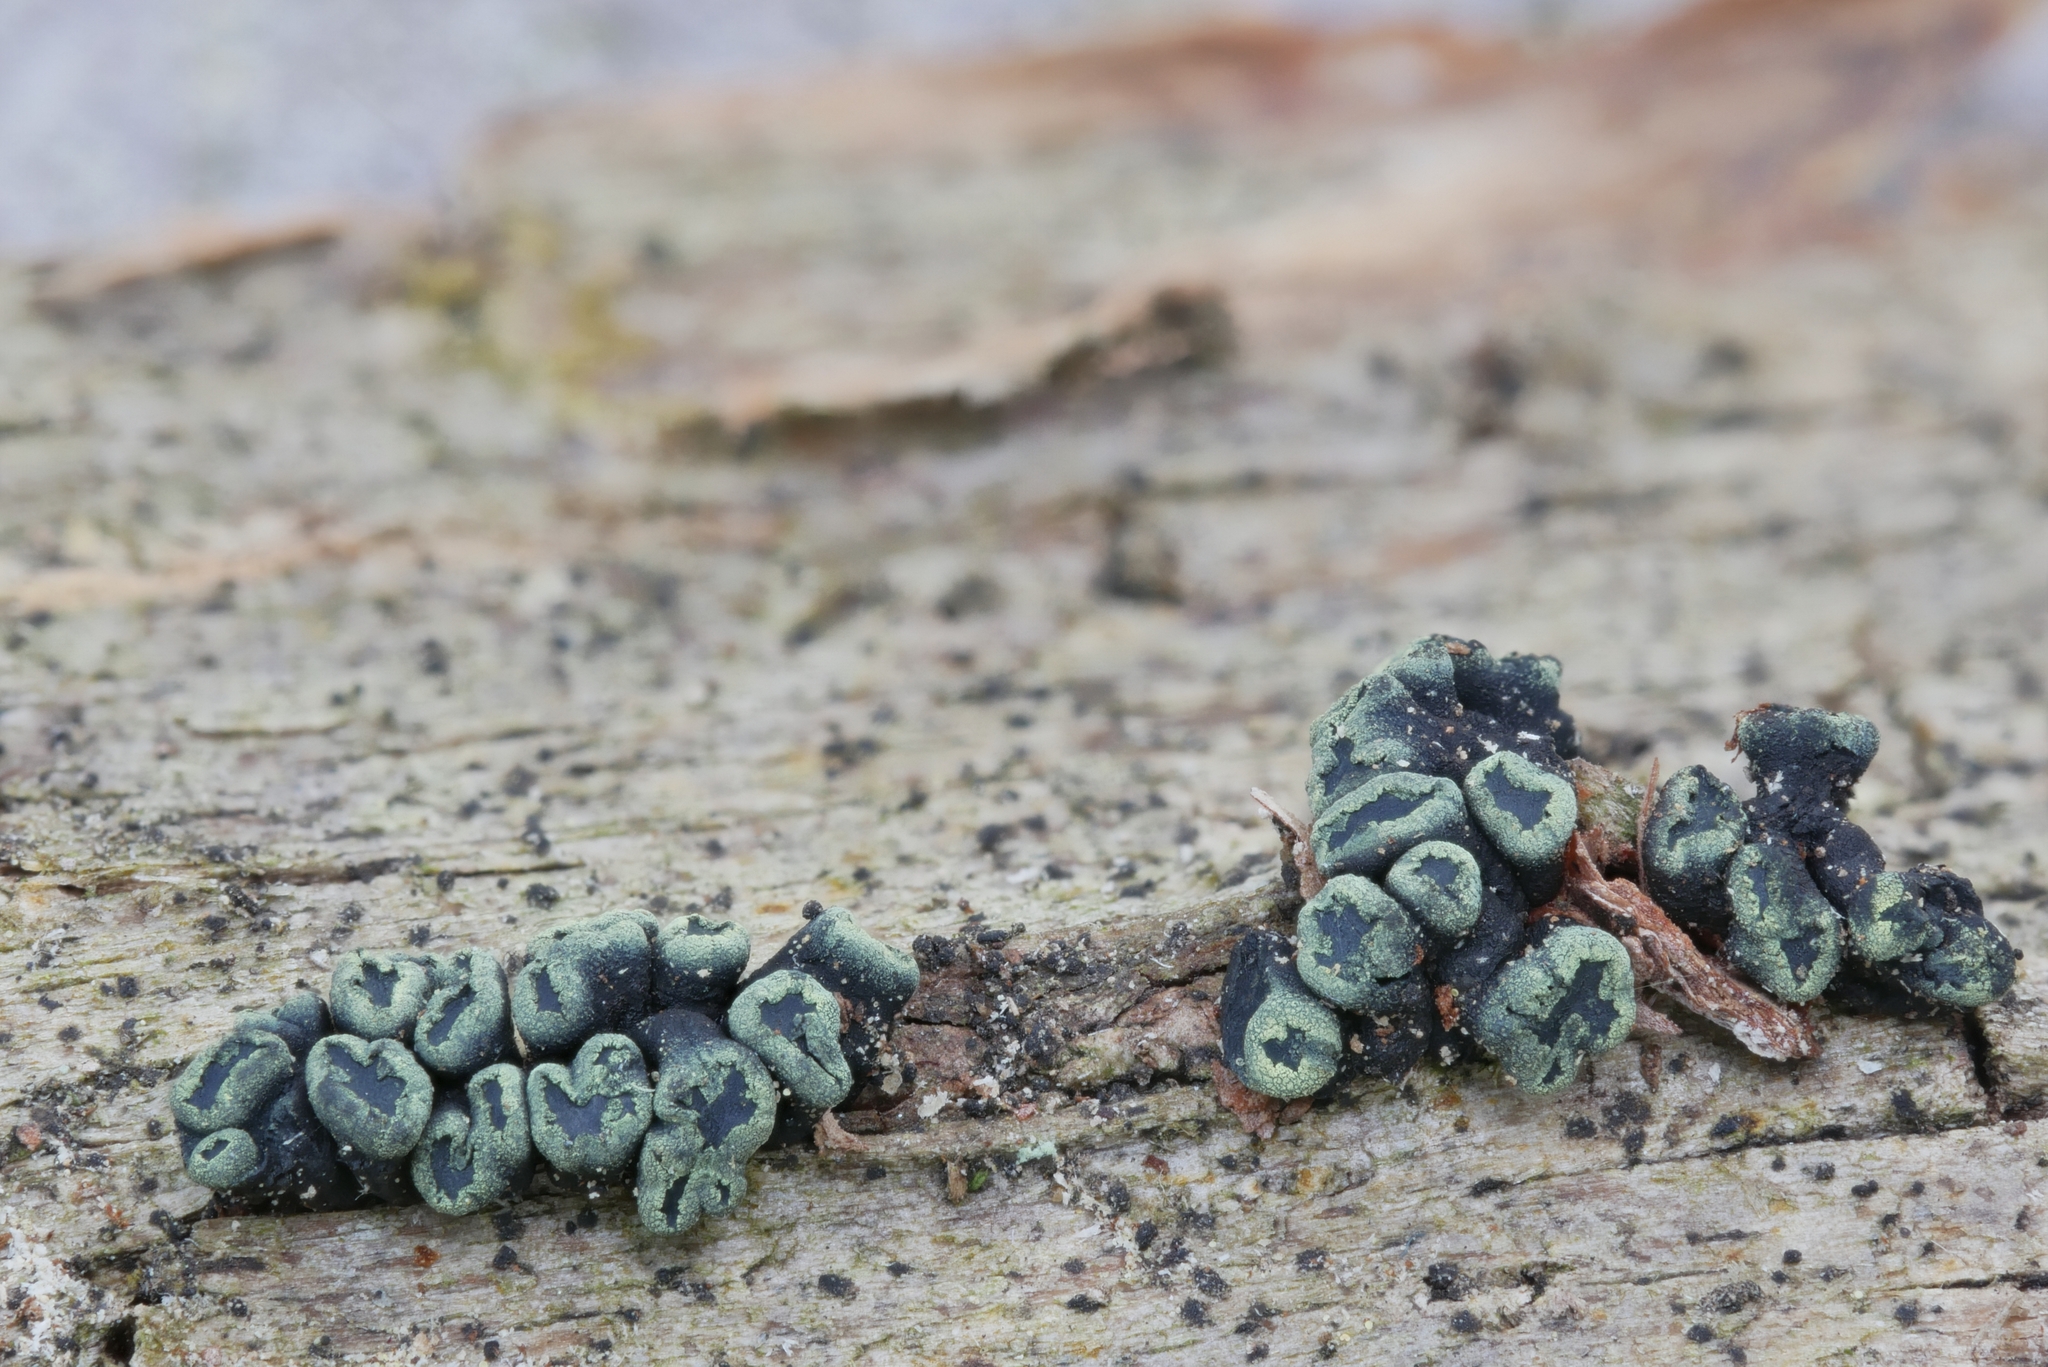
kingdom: Fungi
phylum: Ascomycota
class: Leotiomycetes
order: Leotiales
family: Tympanidaceae
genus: Tympanis
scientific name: Tympanis alnea
